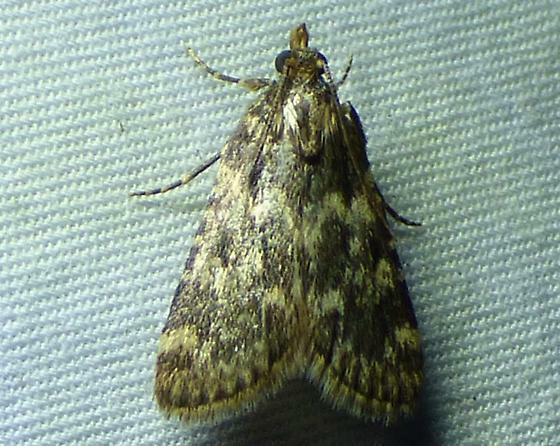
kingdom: Animalia
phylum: Arthropoda
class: Insecta
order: Lepidoptera
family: Pyralidae
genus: Aglossa
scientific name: Aglossa caprealis
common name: Small tabby
